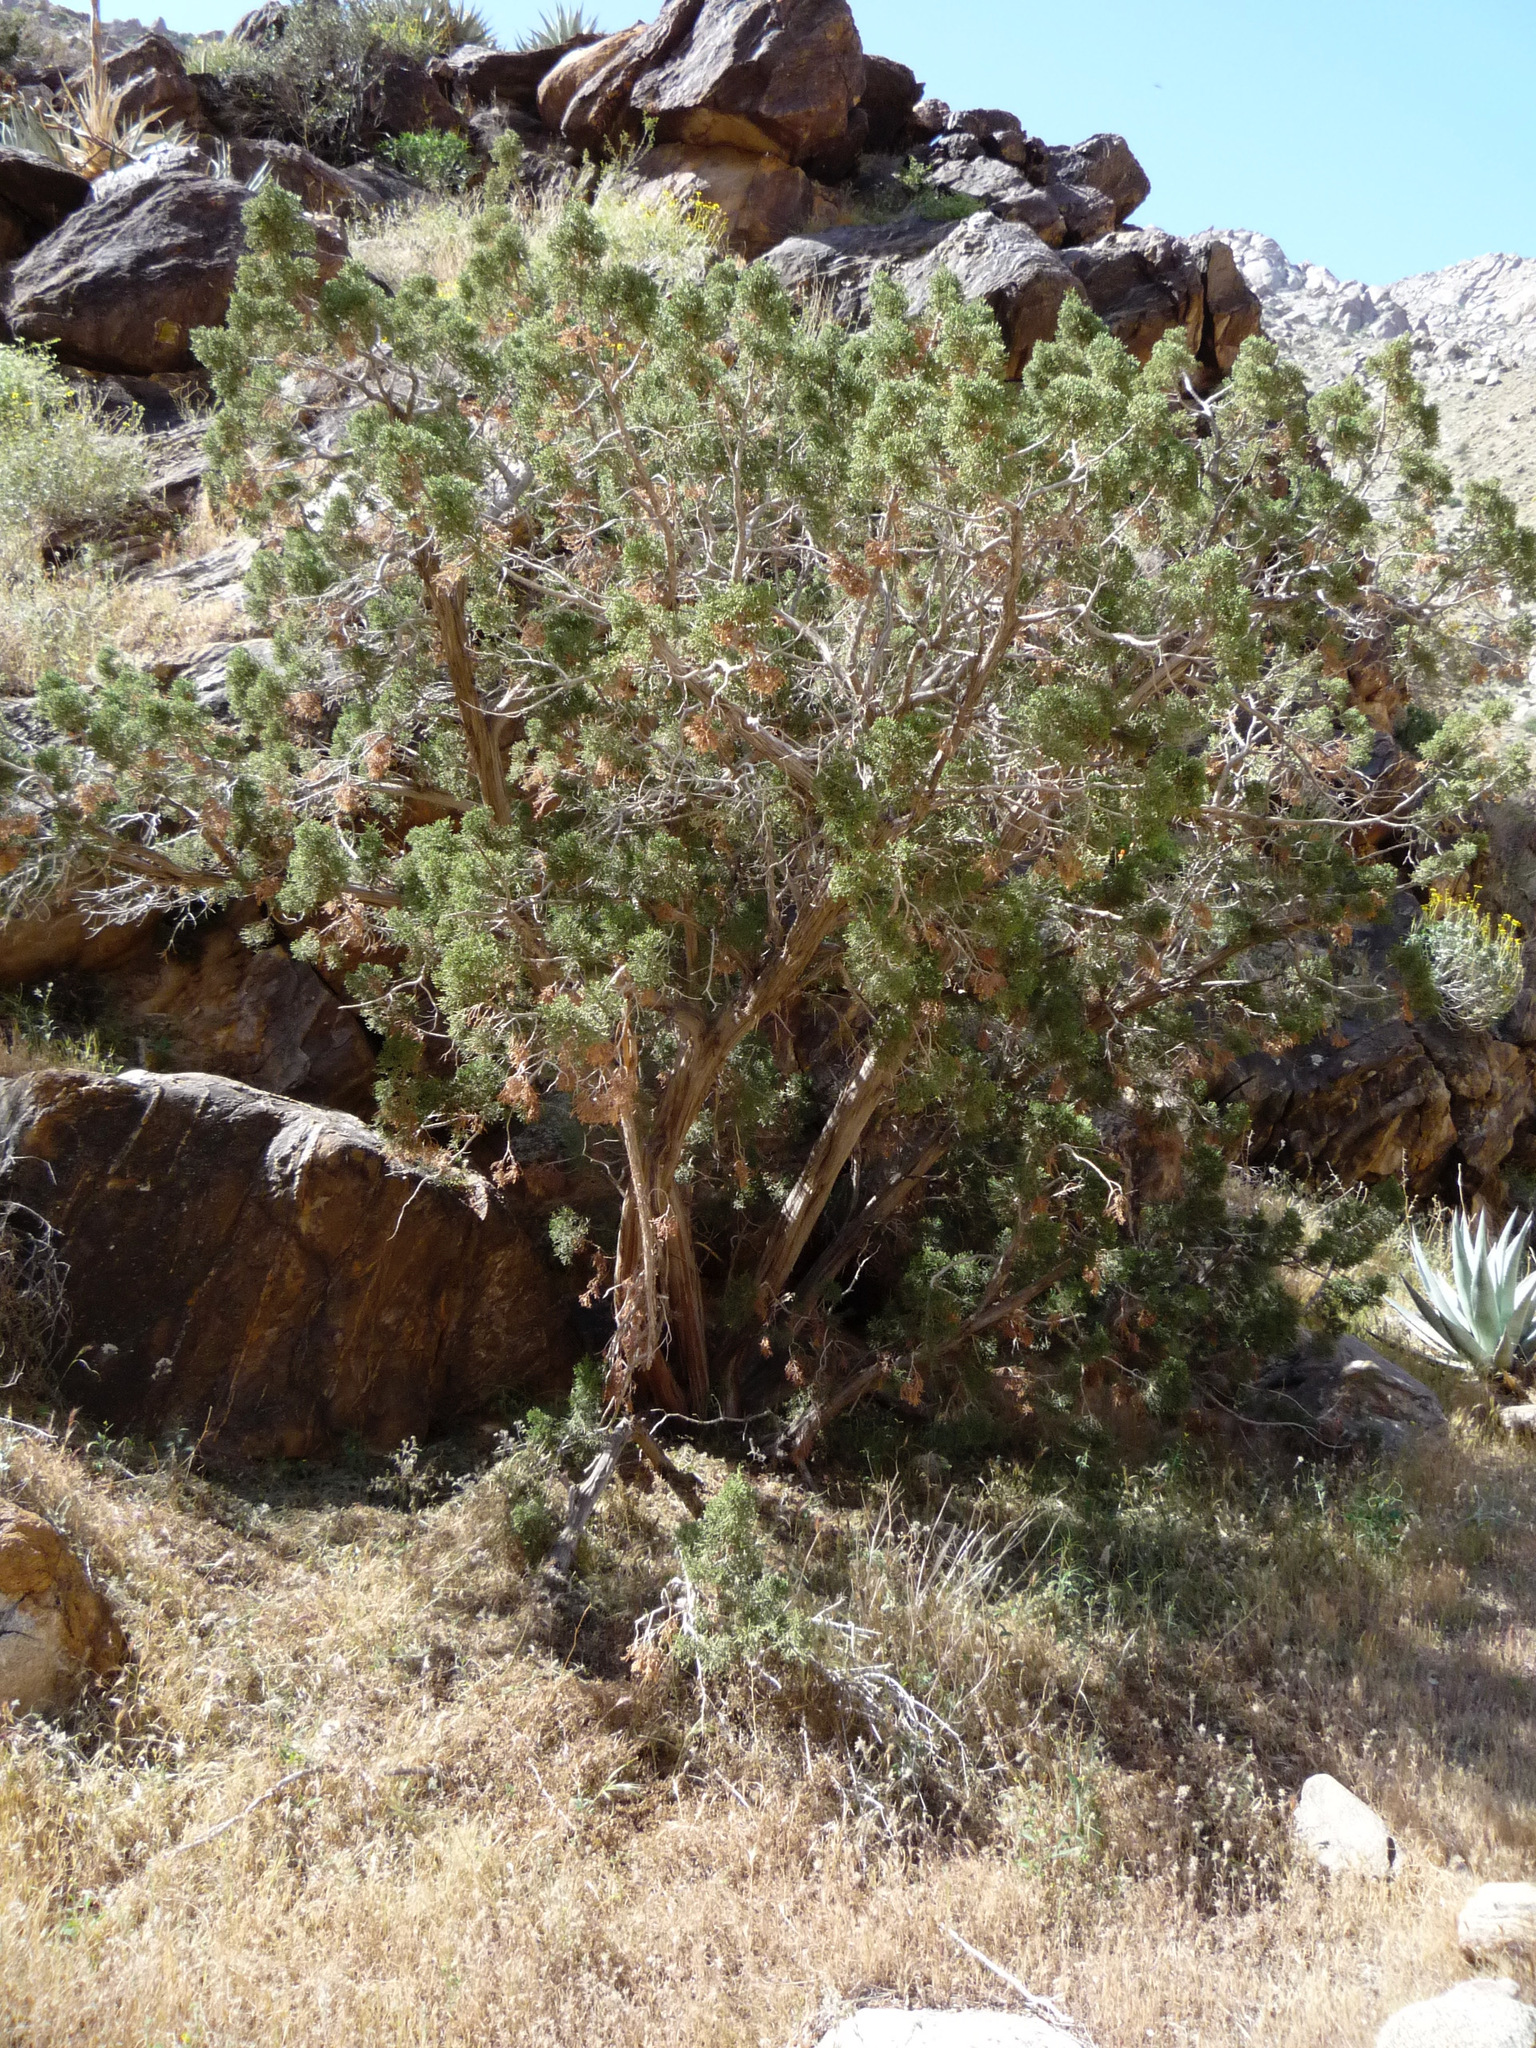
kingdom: Plantae
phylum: Tracheophyta
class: Pinopsida
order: Pinales
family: Cupressaceae
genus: Juniperus
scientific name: Juniperus californica
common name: California juniper
